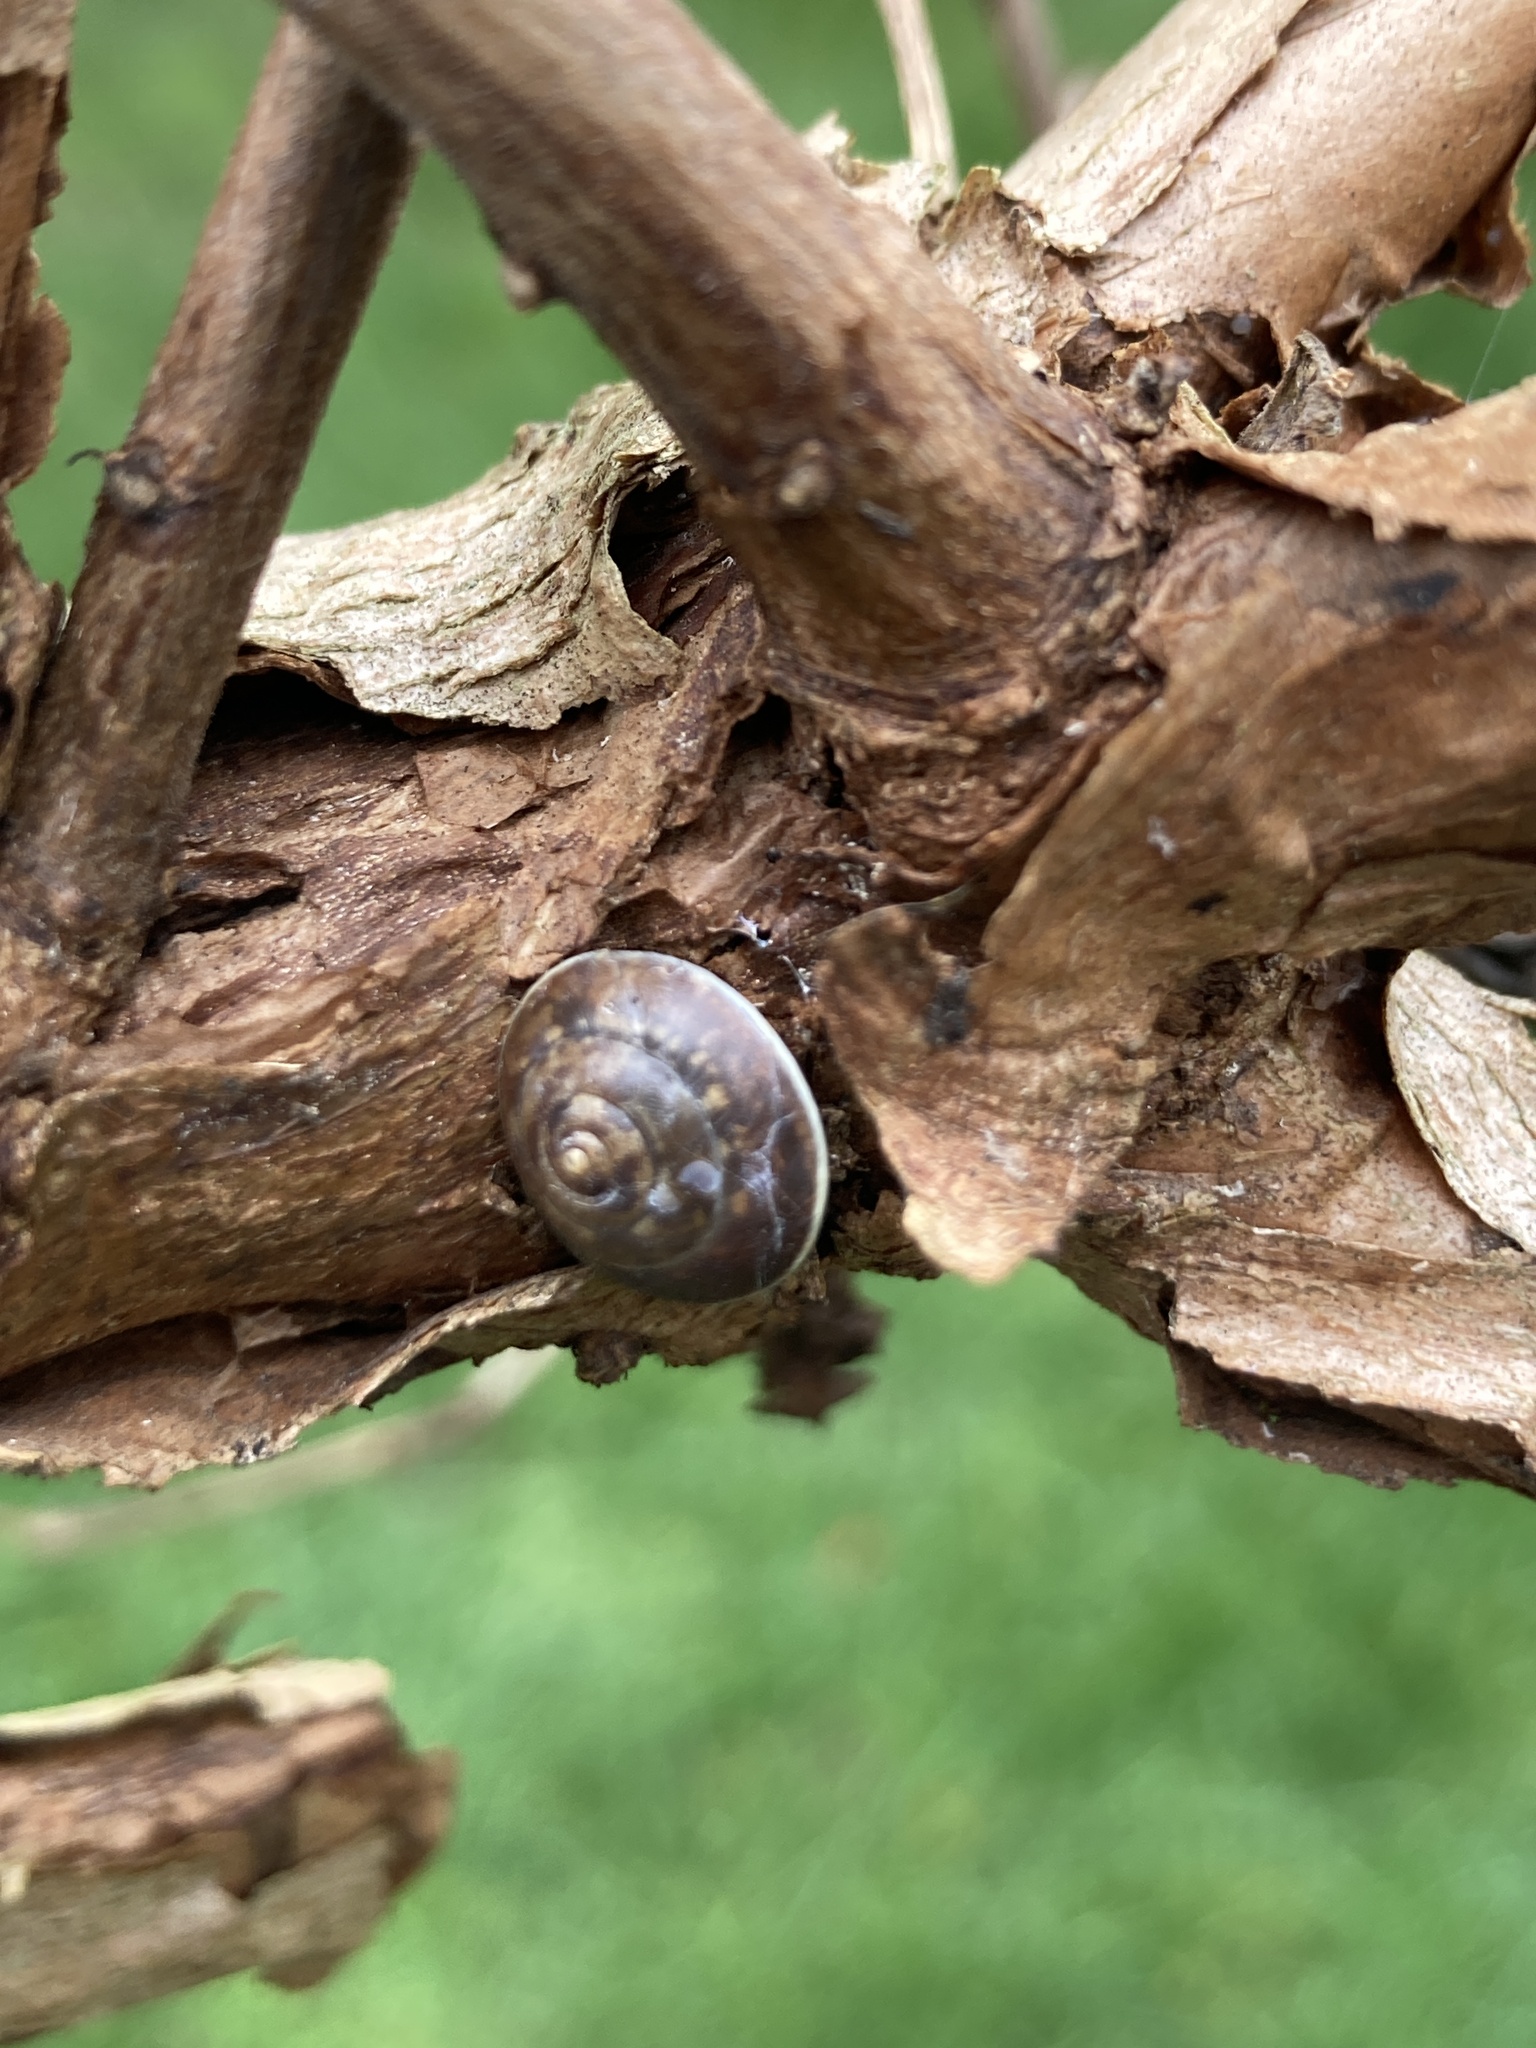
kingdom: Animalia
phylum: Mollusca
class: Gastropoda
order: Stylommatophora
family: Hygromiidae
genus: Hygromia
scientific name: Hygromia cinctella
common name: Girdled snail
